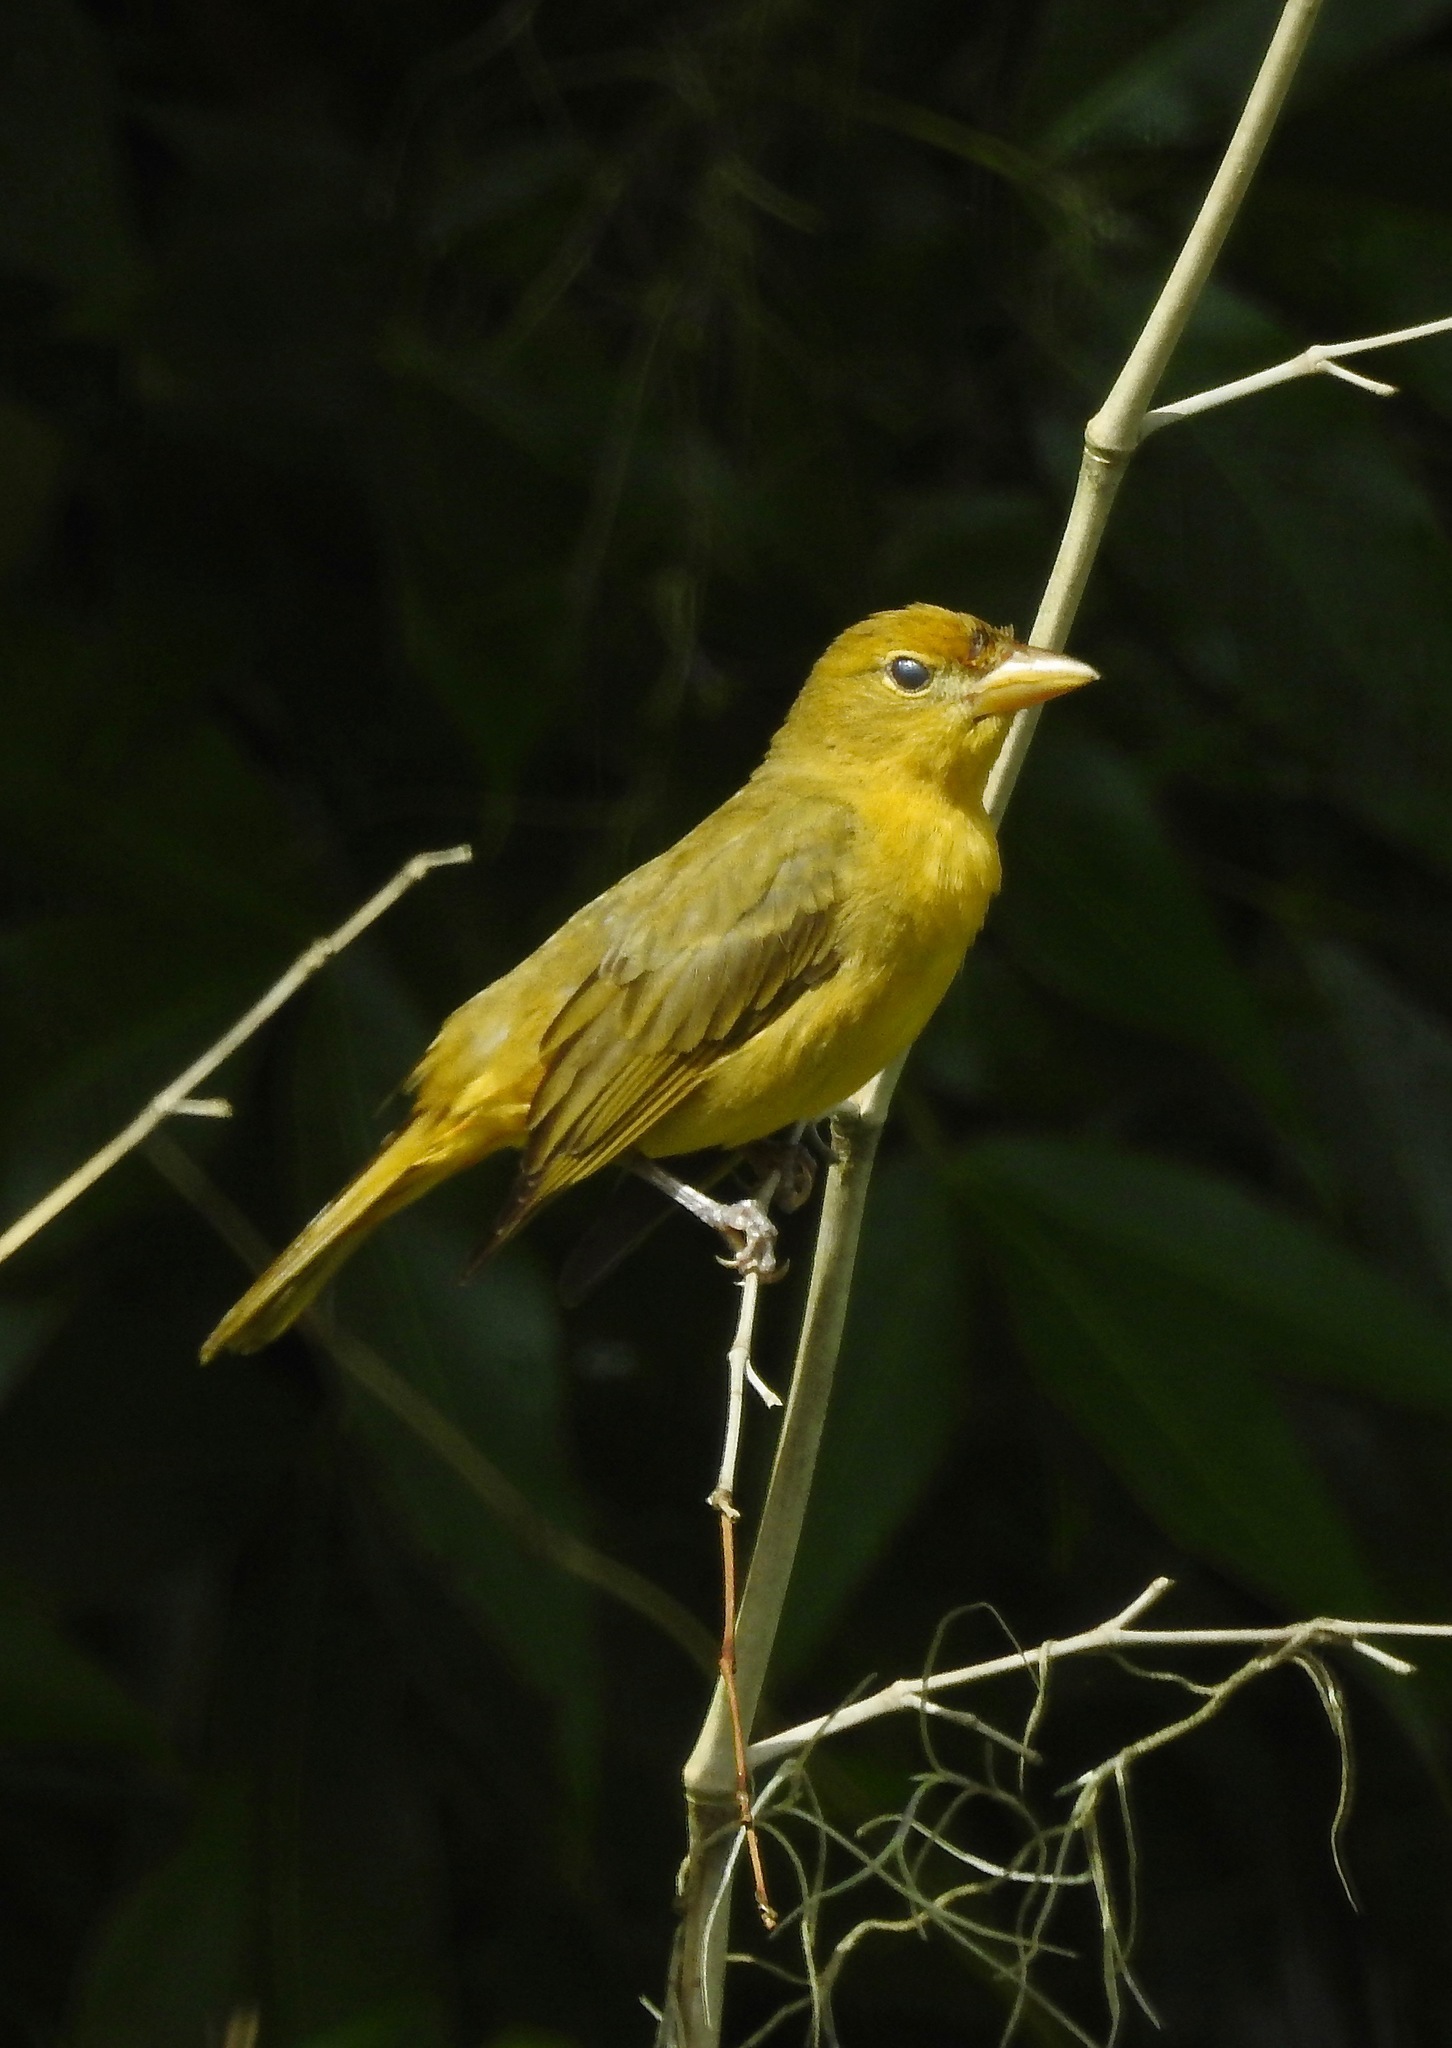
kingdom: Animalia
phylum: Chordata
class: Aves
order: Passeriformes
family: Cardinalidae
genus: Piranga
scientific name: Piranga rubra
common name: Summer tanager
